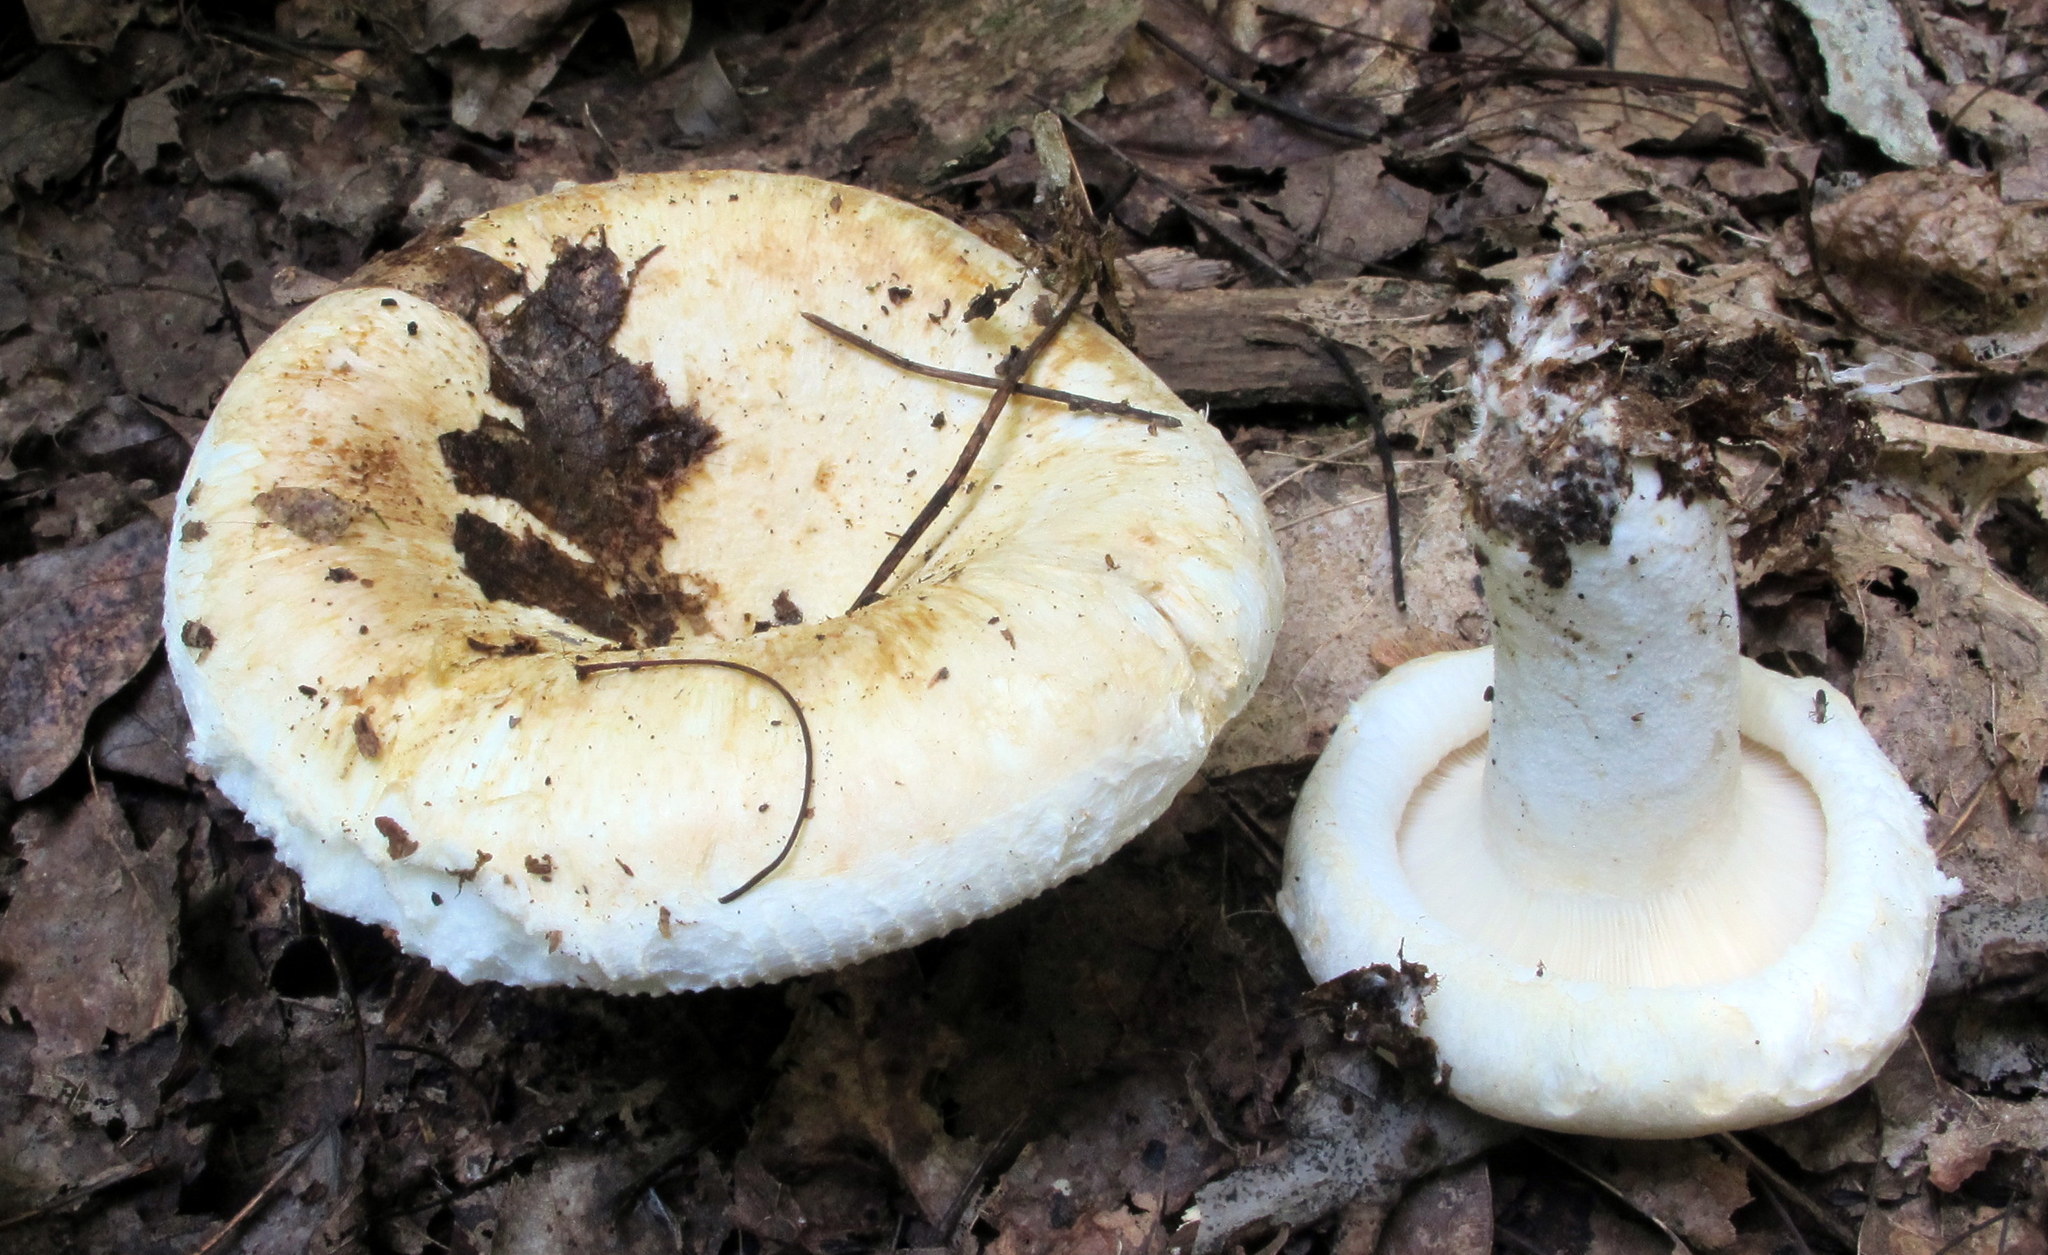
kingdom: Fungi
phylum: Basidiomycota
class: Agaricomycetes
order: Russulales
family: Russulaceae
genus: Lactifluus
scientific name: Lactifluus
